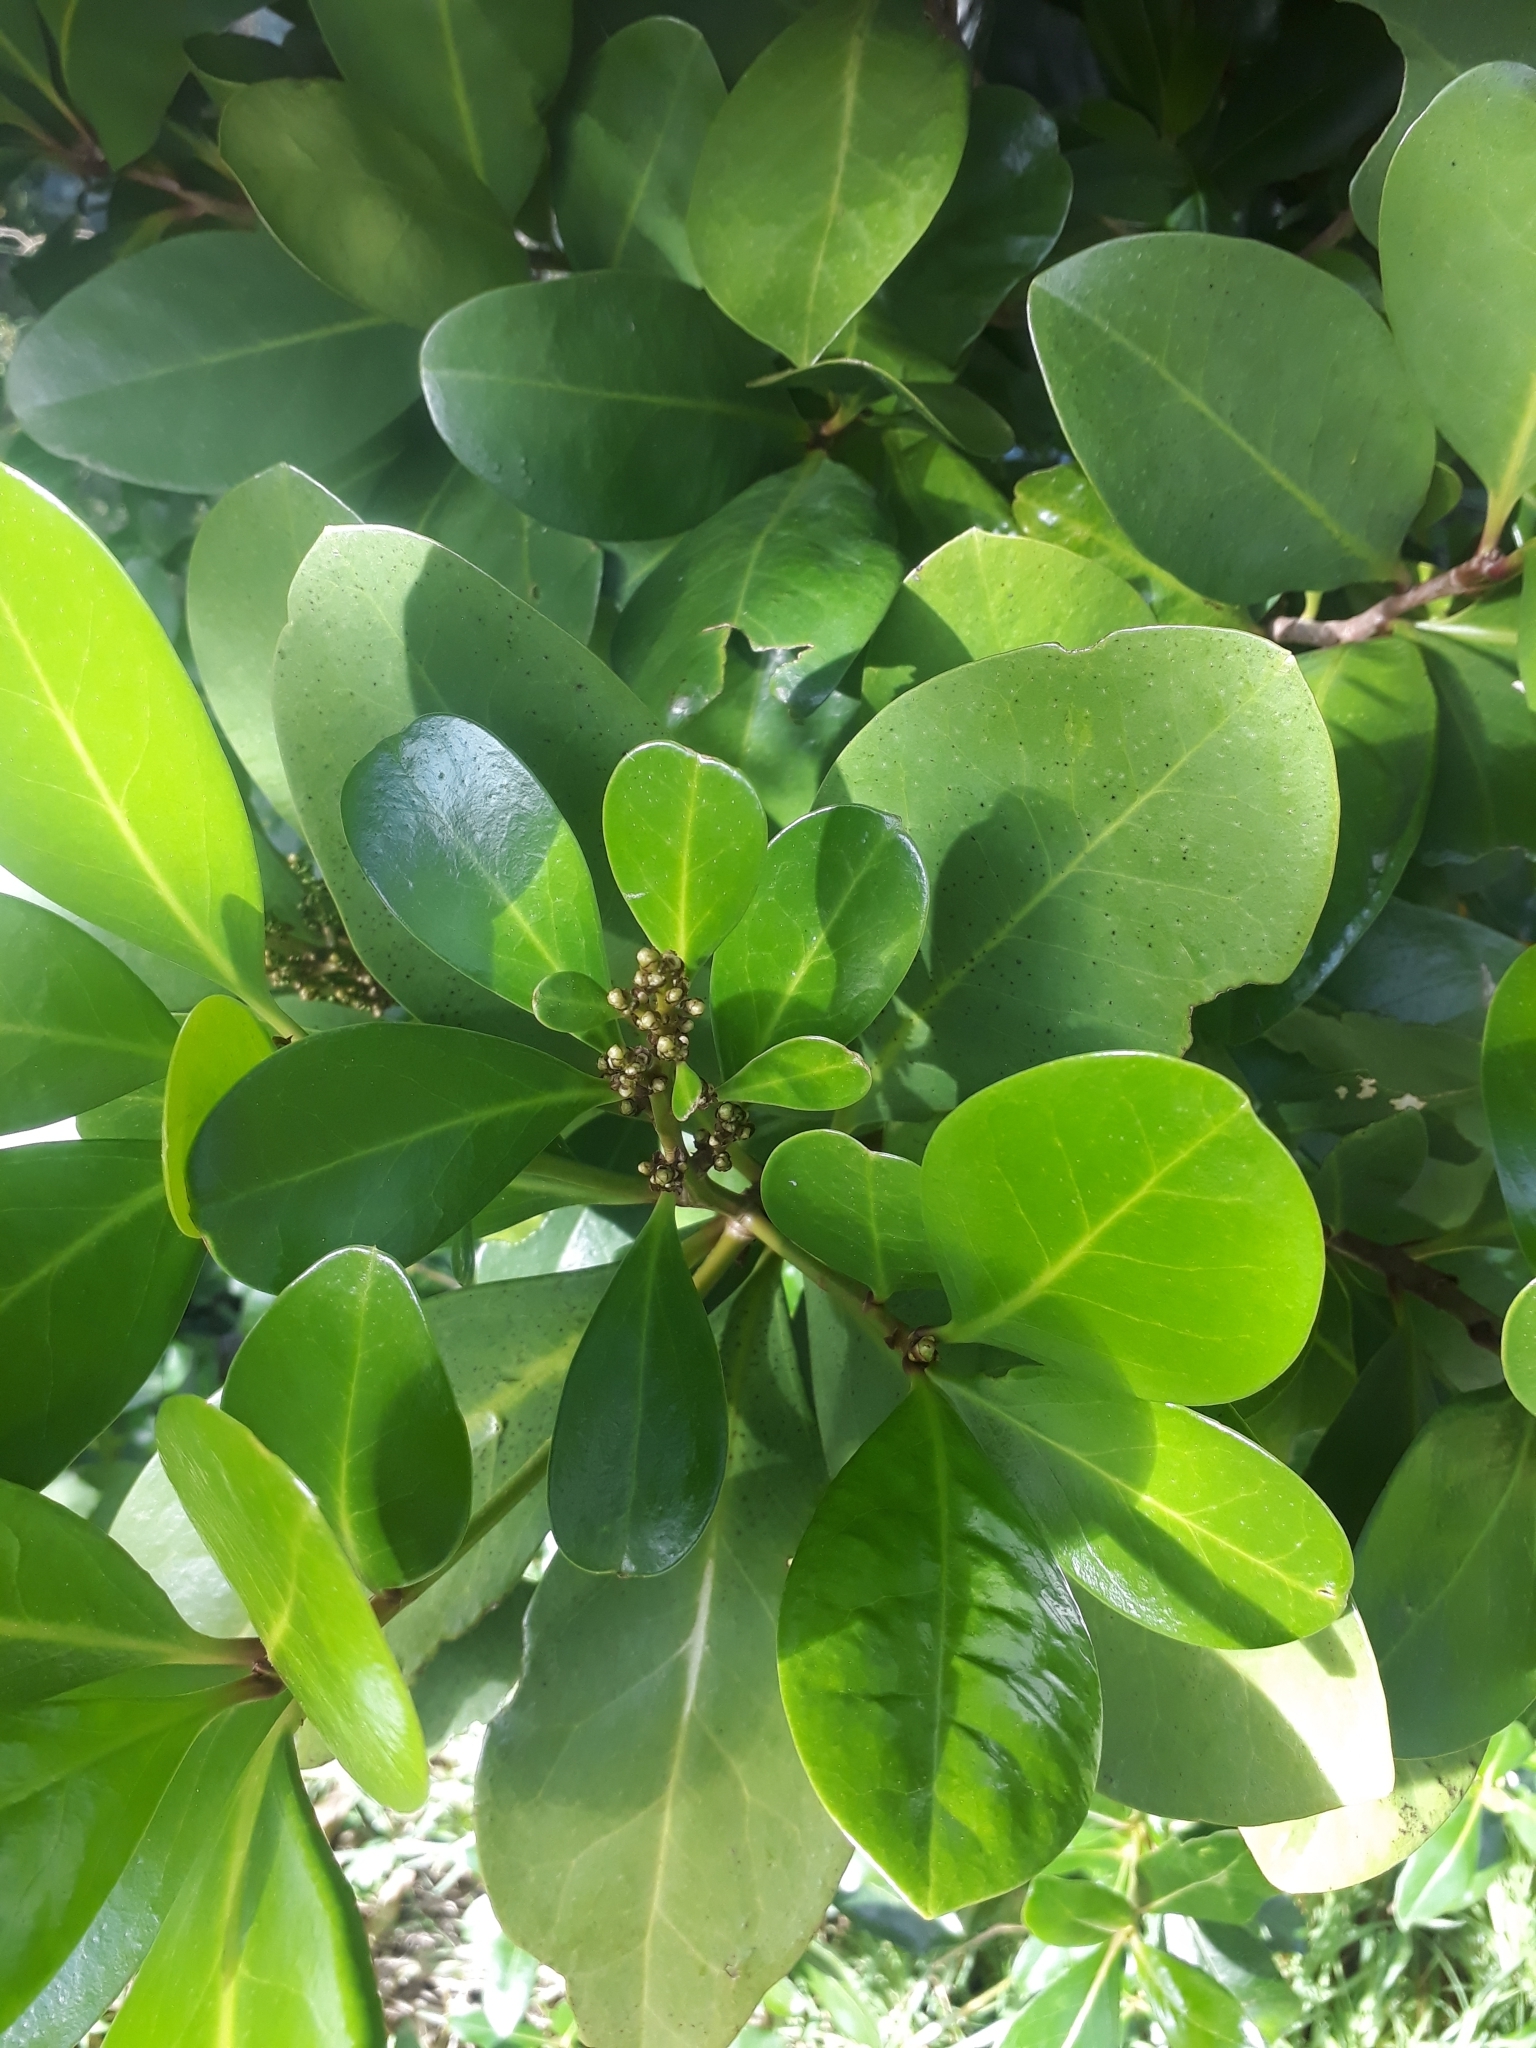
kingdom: Plantae
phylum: Tracheophyta
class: Magnoliopsida
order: Cucurbitales
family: Corynocarpaceae
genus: Corynocarpus
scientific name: Corynocarpus laevigatus
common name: New zealand laurel
